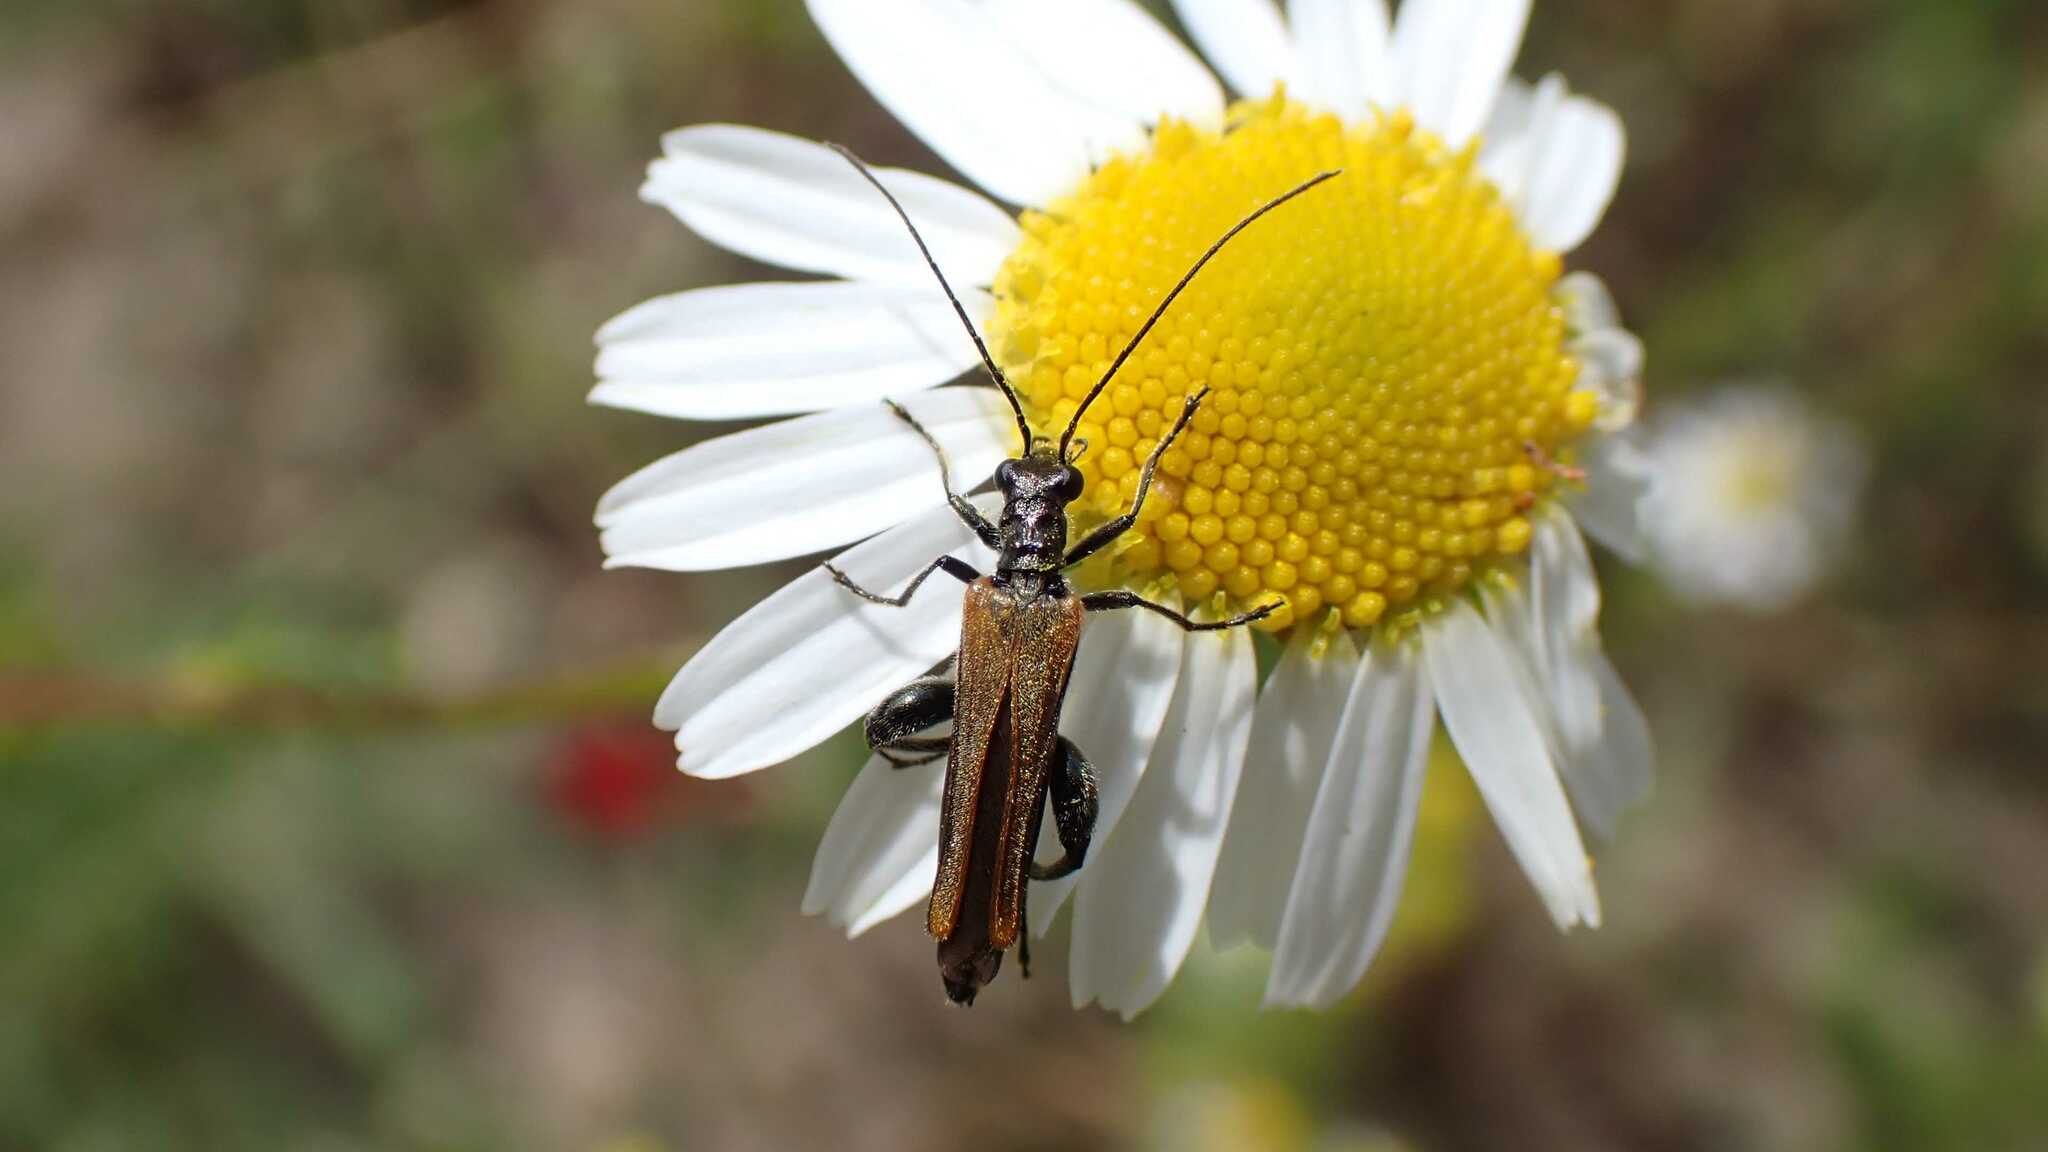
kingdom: Animalia
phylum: Arthropoda
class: Insecta
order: Coleoptera
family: Oedemeridae
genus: Oedemera
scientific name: Oedemera femorata
